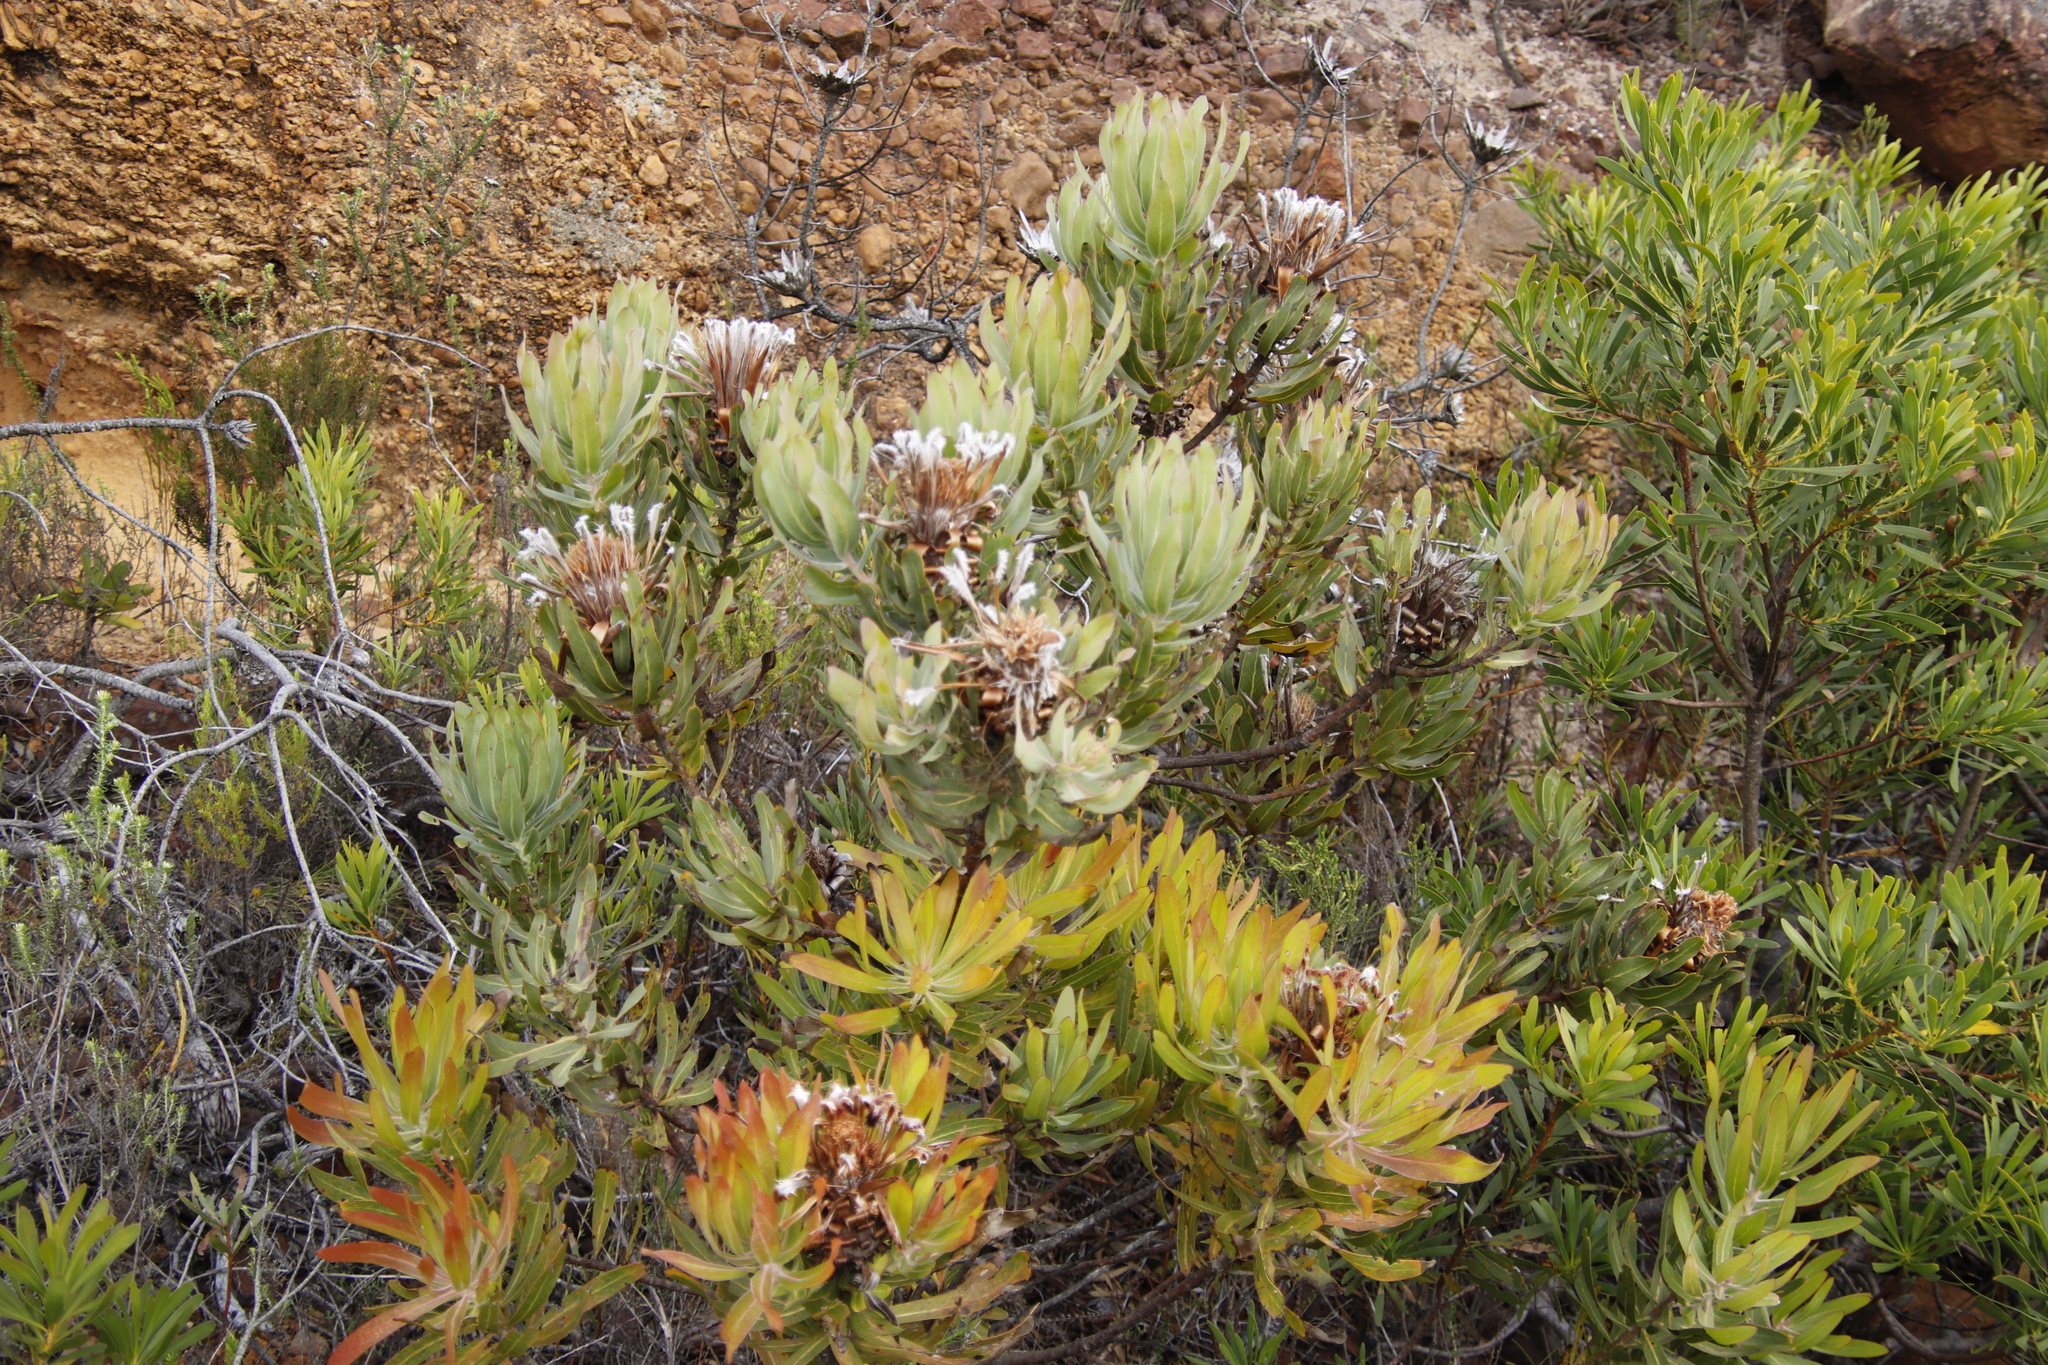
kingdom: Plantae
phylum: Tracheophyta
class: Magnoliopsida
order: Proteales
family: Proteaceae
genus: Protea
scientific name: Protea
